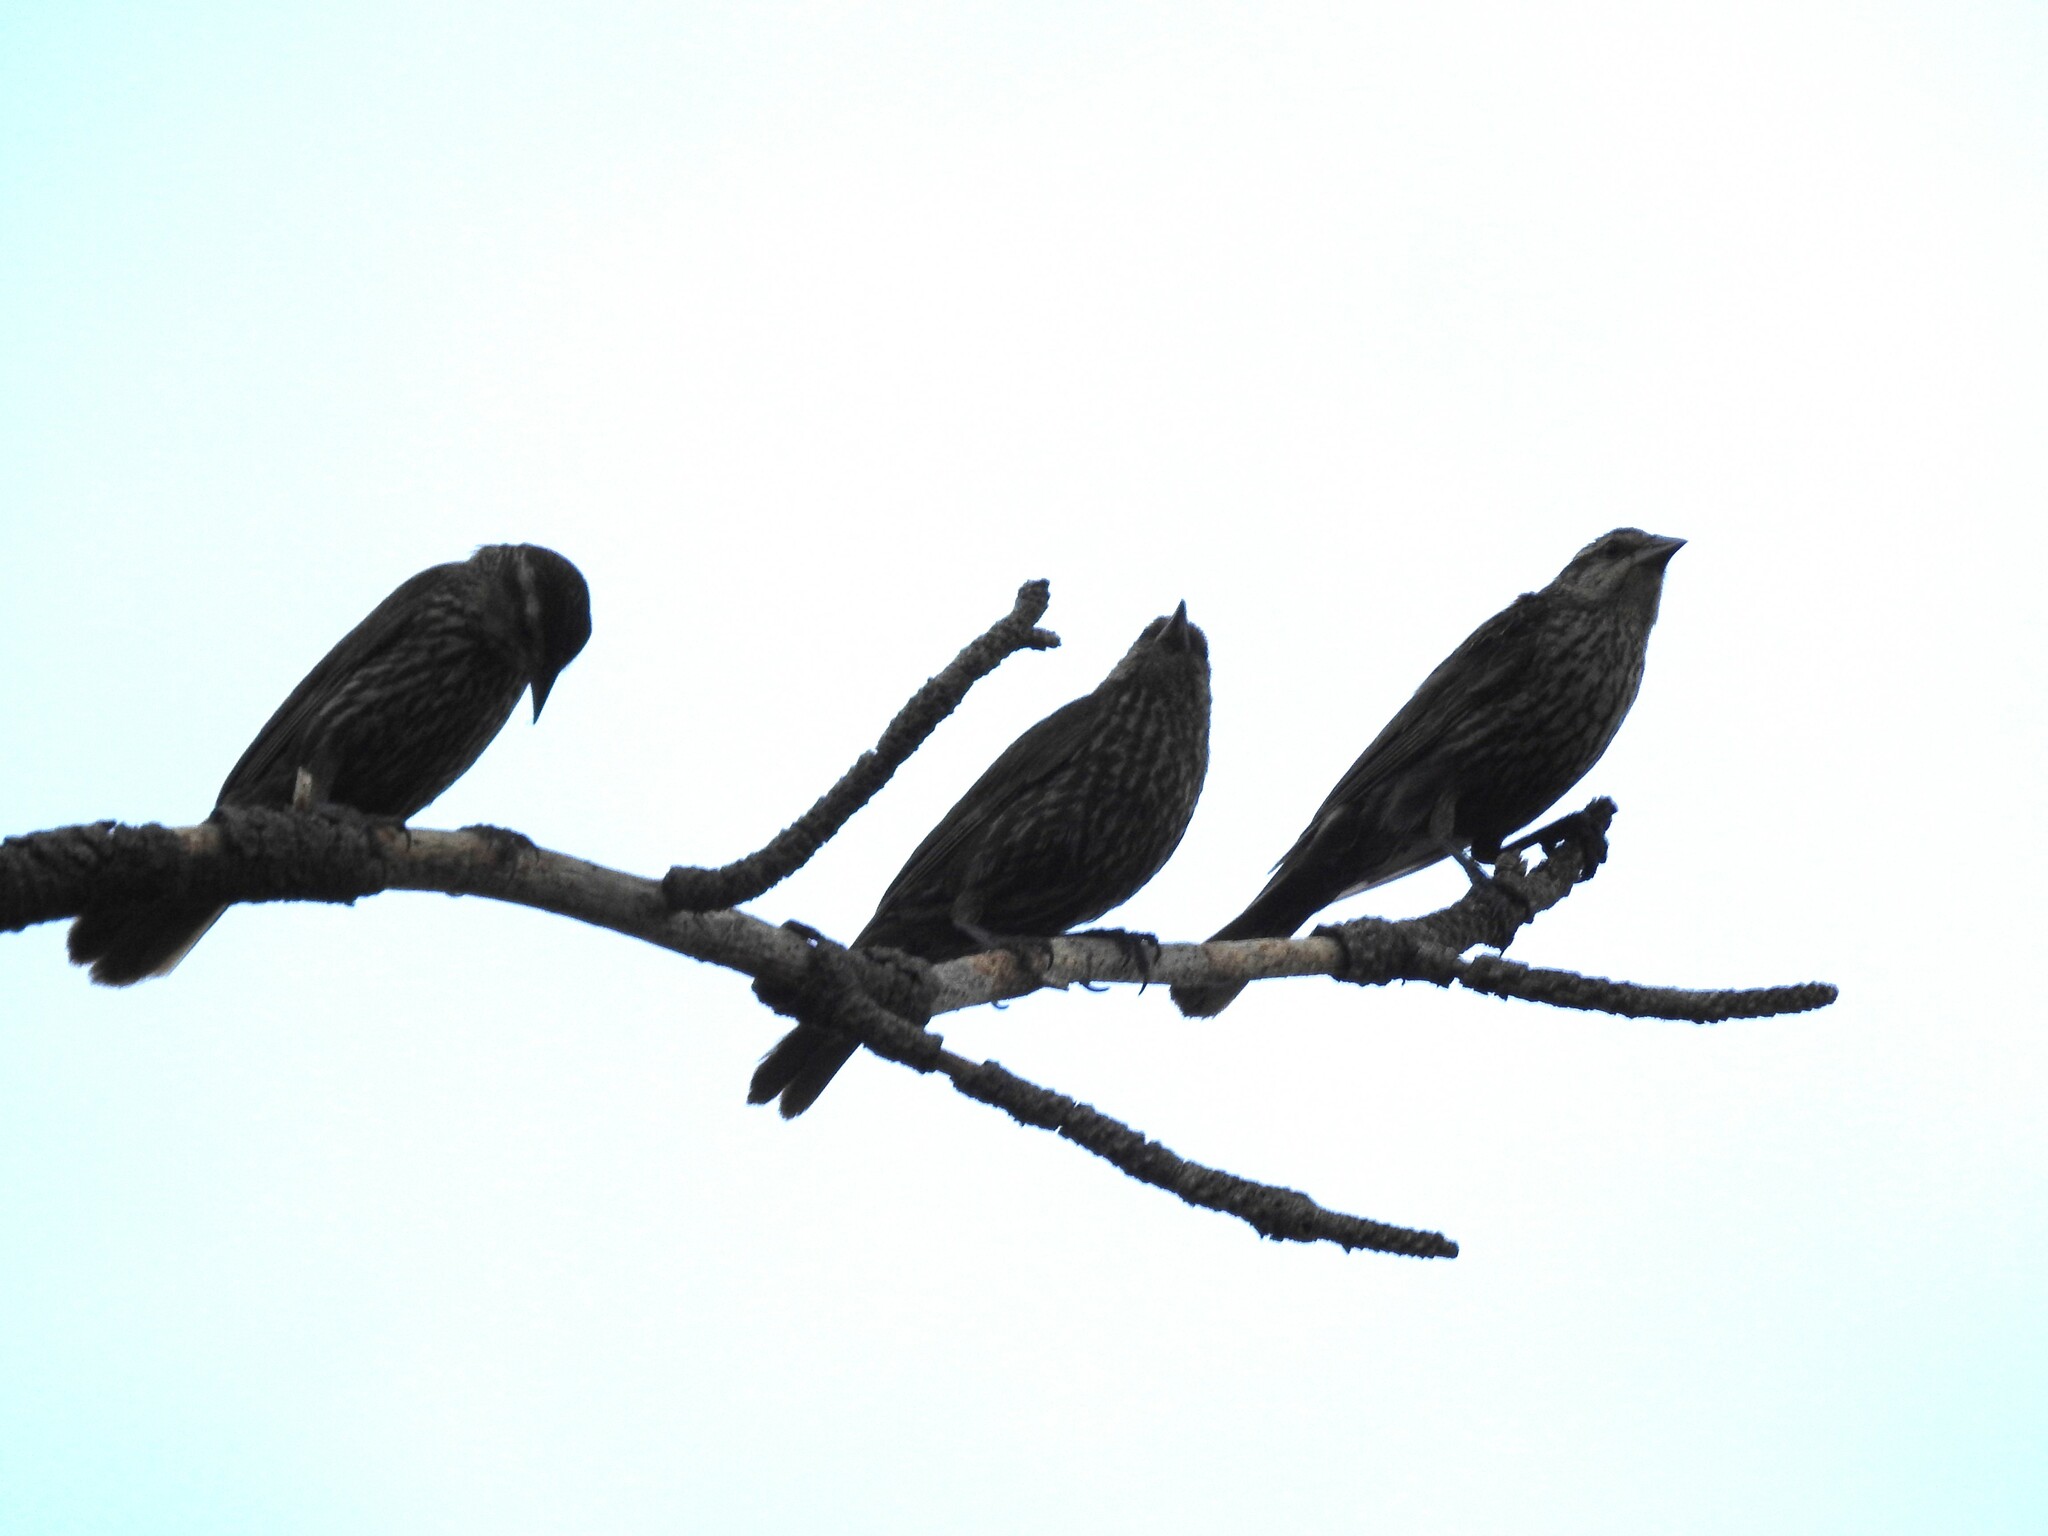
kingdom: Animalia
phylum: Chordata
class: Aves
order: Passeriformes
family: Icteridae
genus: Agelaius
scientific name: Agelaius phoeniceus
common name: Red-winged blackbird
